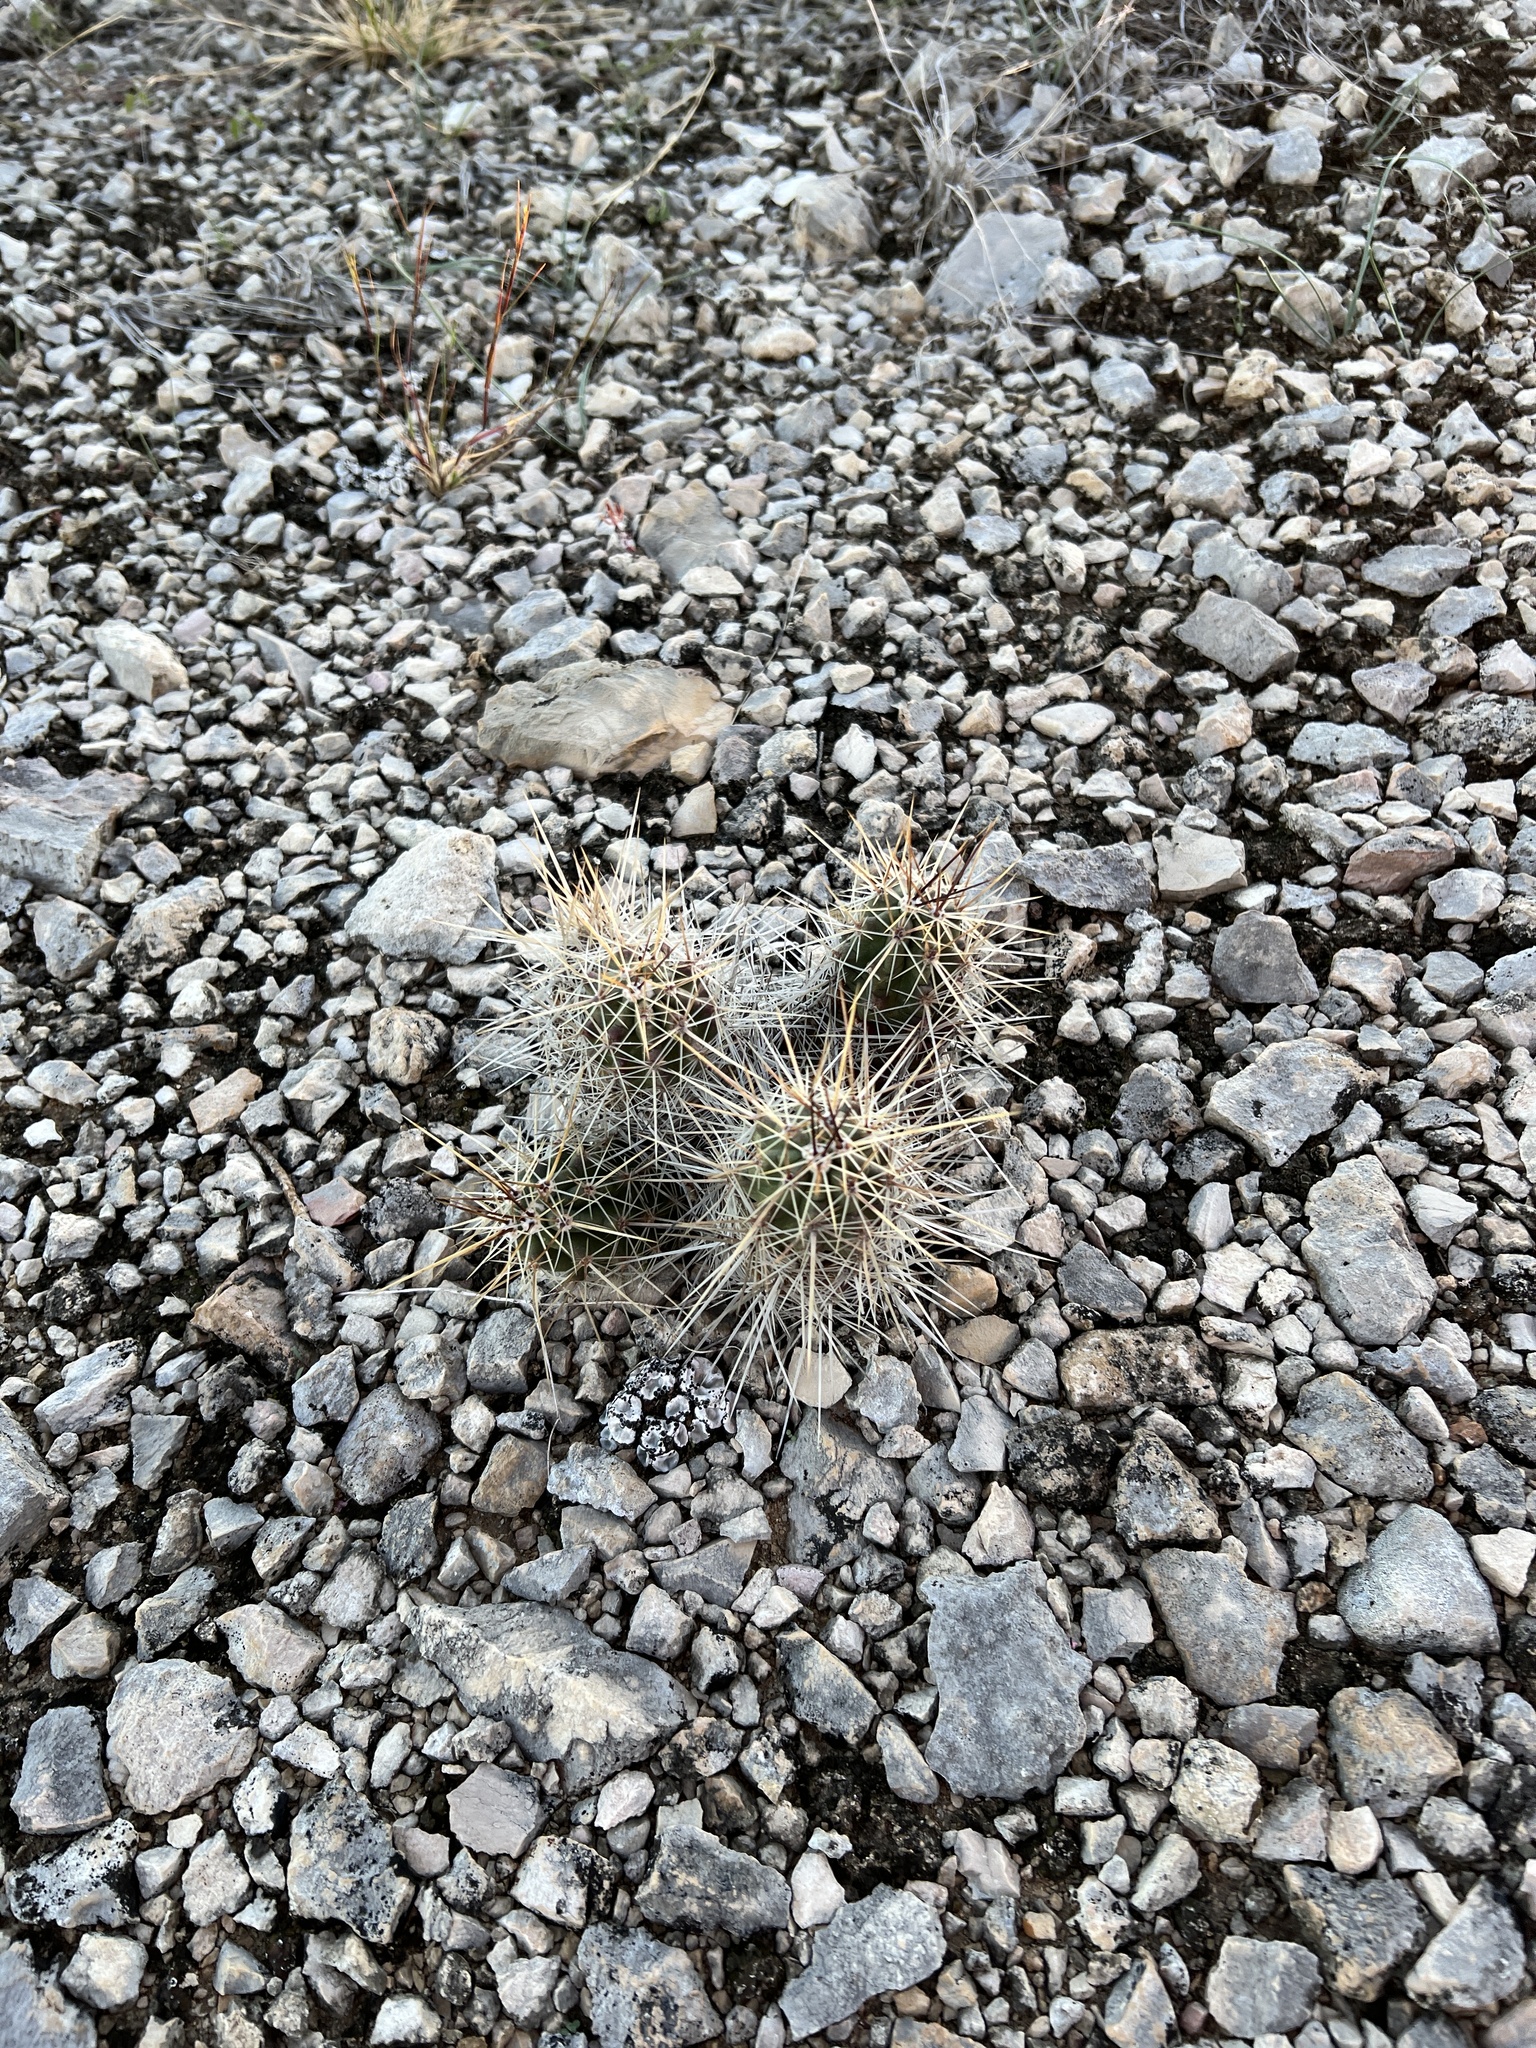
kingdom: Plantae
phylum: Tracheophyta
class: Magnoliopsida
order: Caryophyllales
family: Cactaceae
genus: Echinocereus
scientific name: Echinocereus enneacanthus
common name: Pitaya
